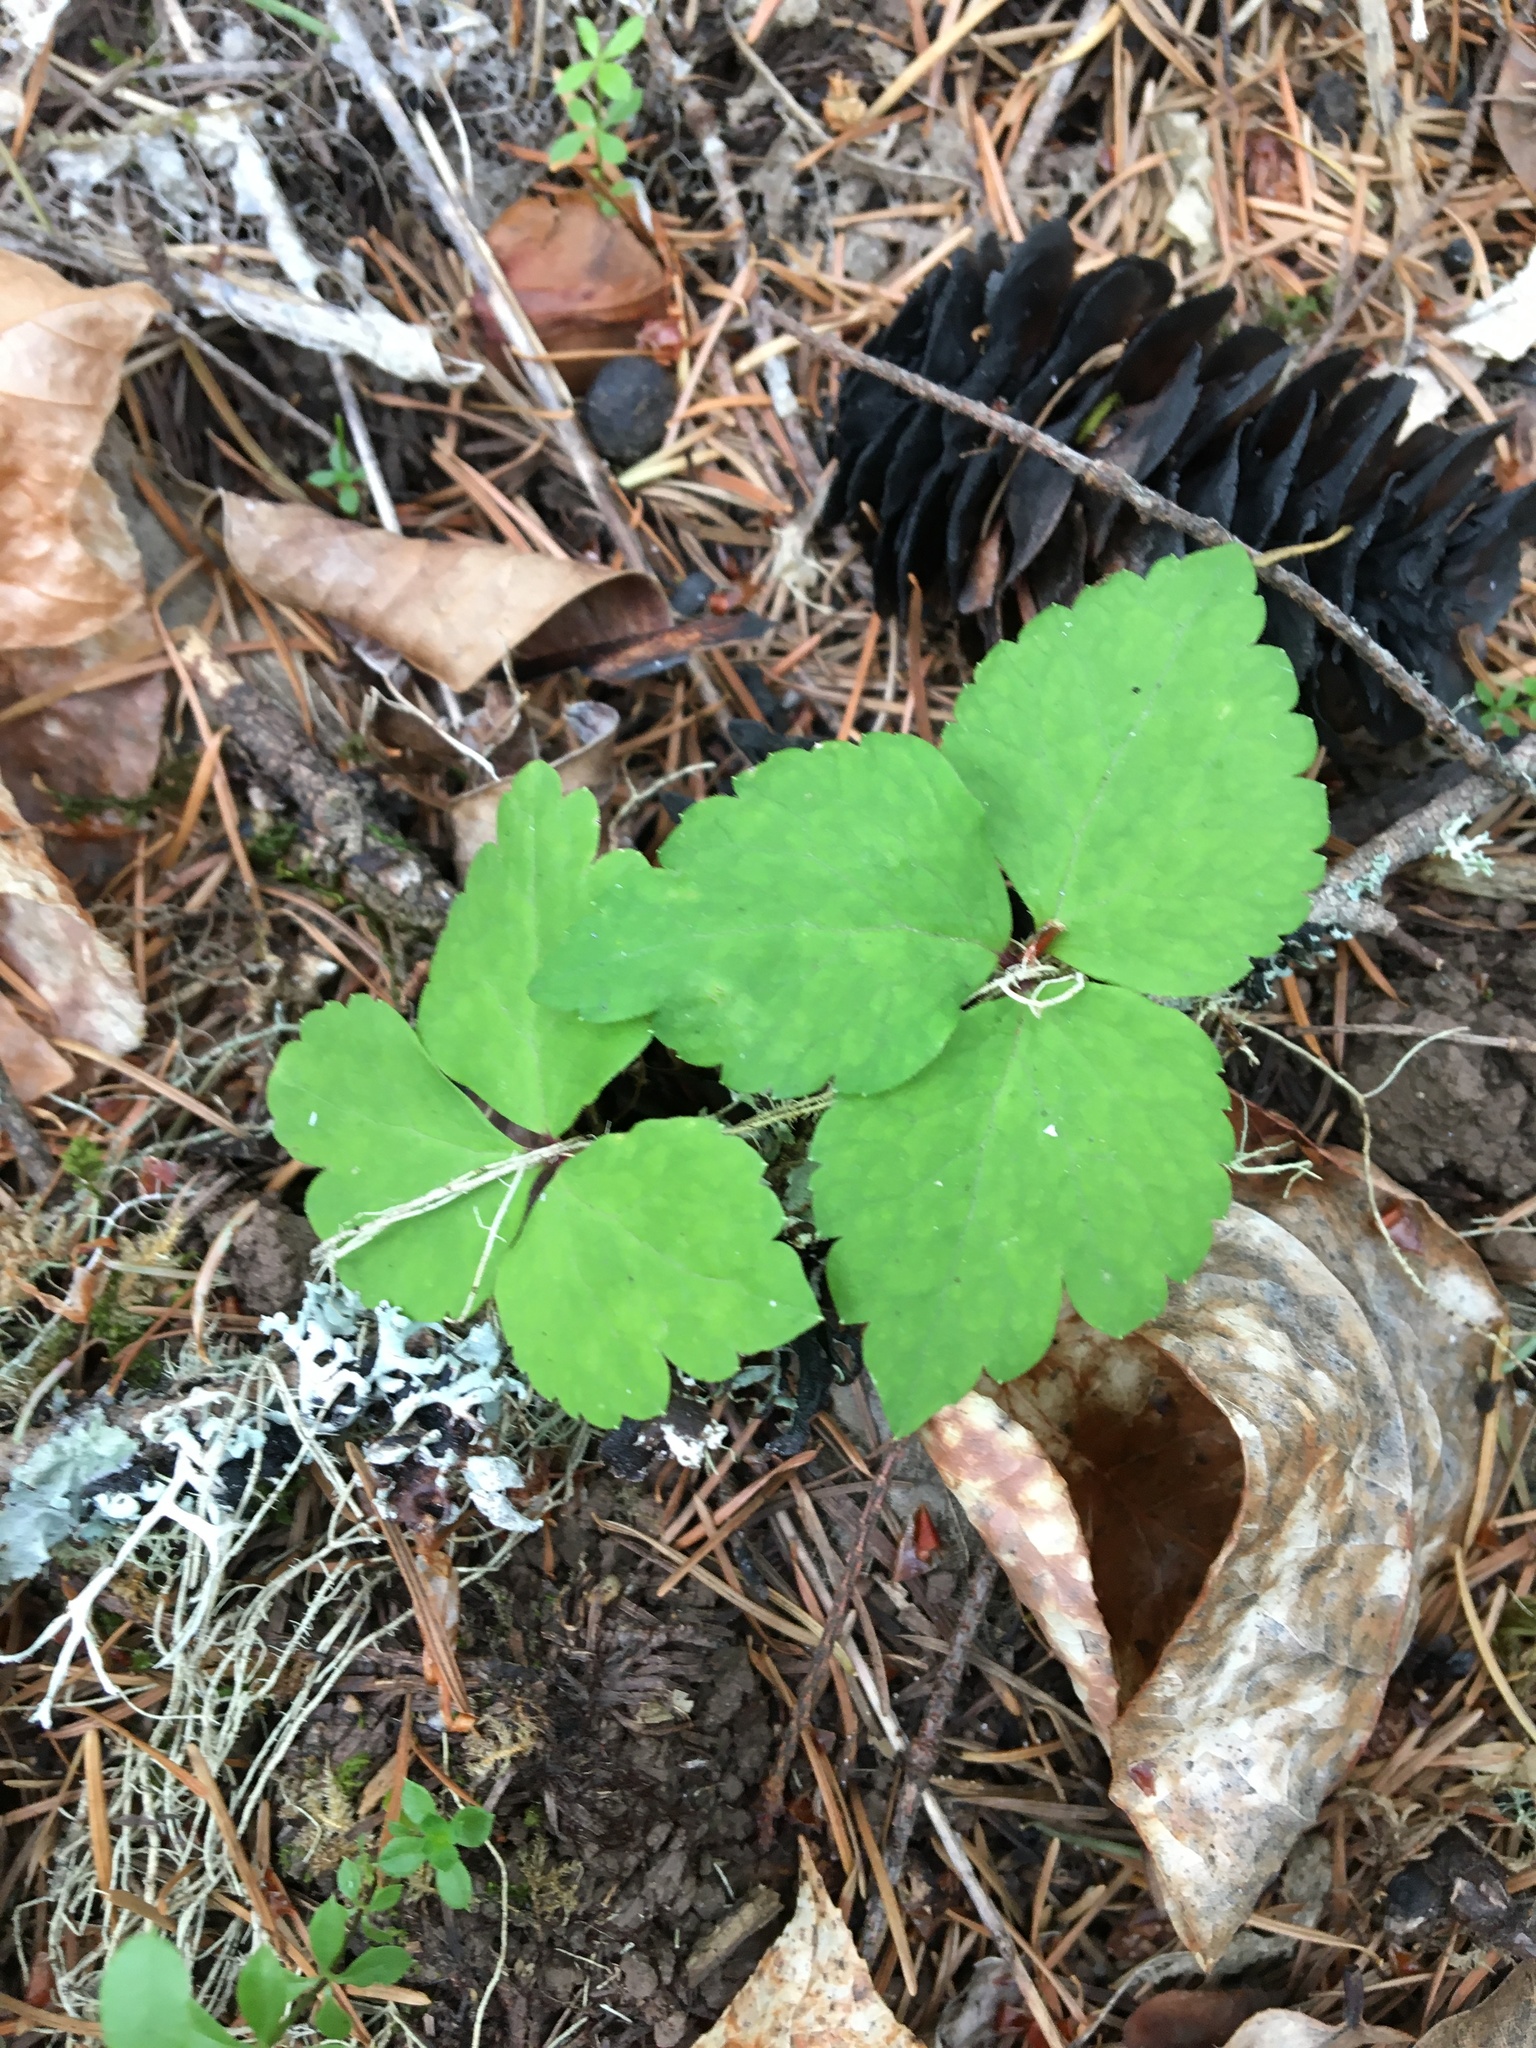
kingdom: Plantae
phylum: Tracheophyta
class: Magnoliopsida
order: Ranunculales
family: Ranunculaceae
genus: Anemonastrum
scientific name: Anemonastrum deltoideum
